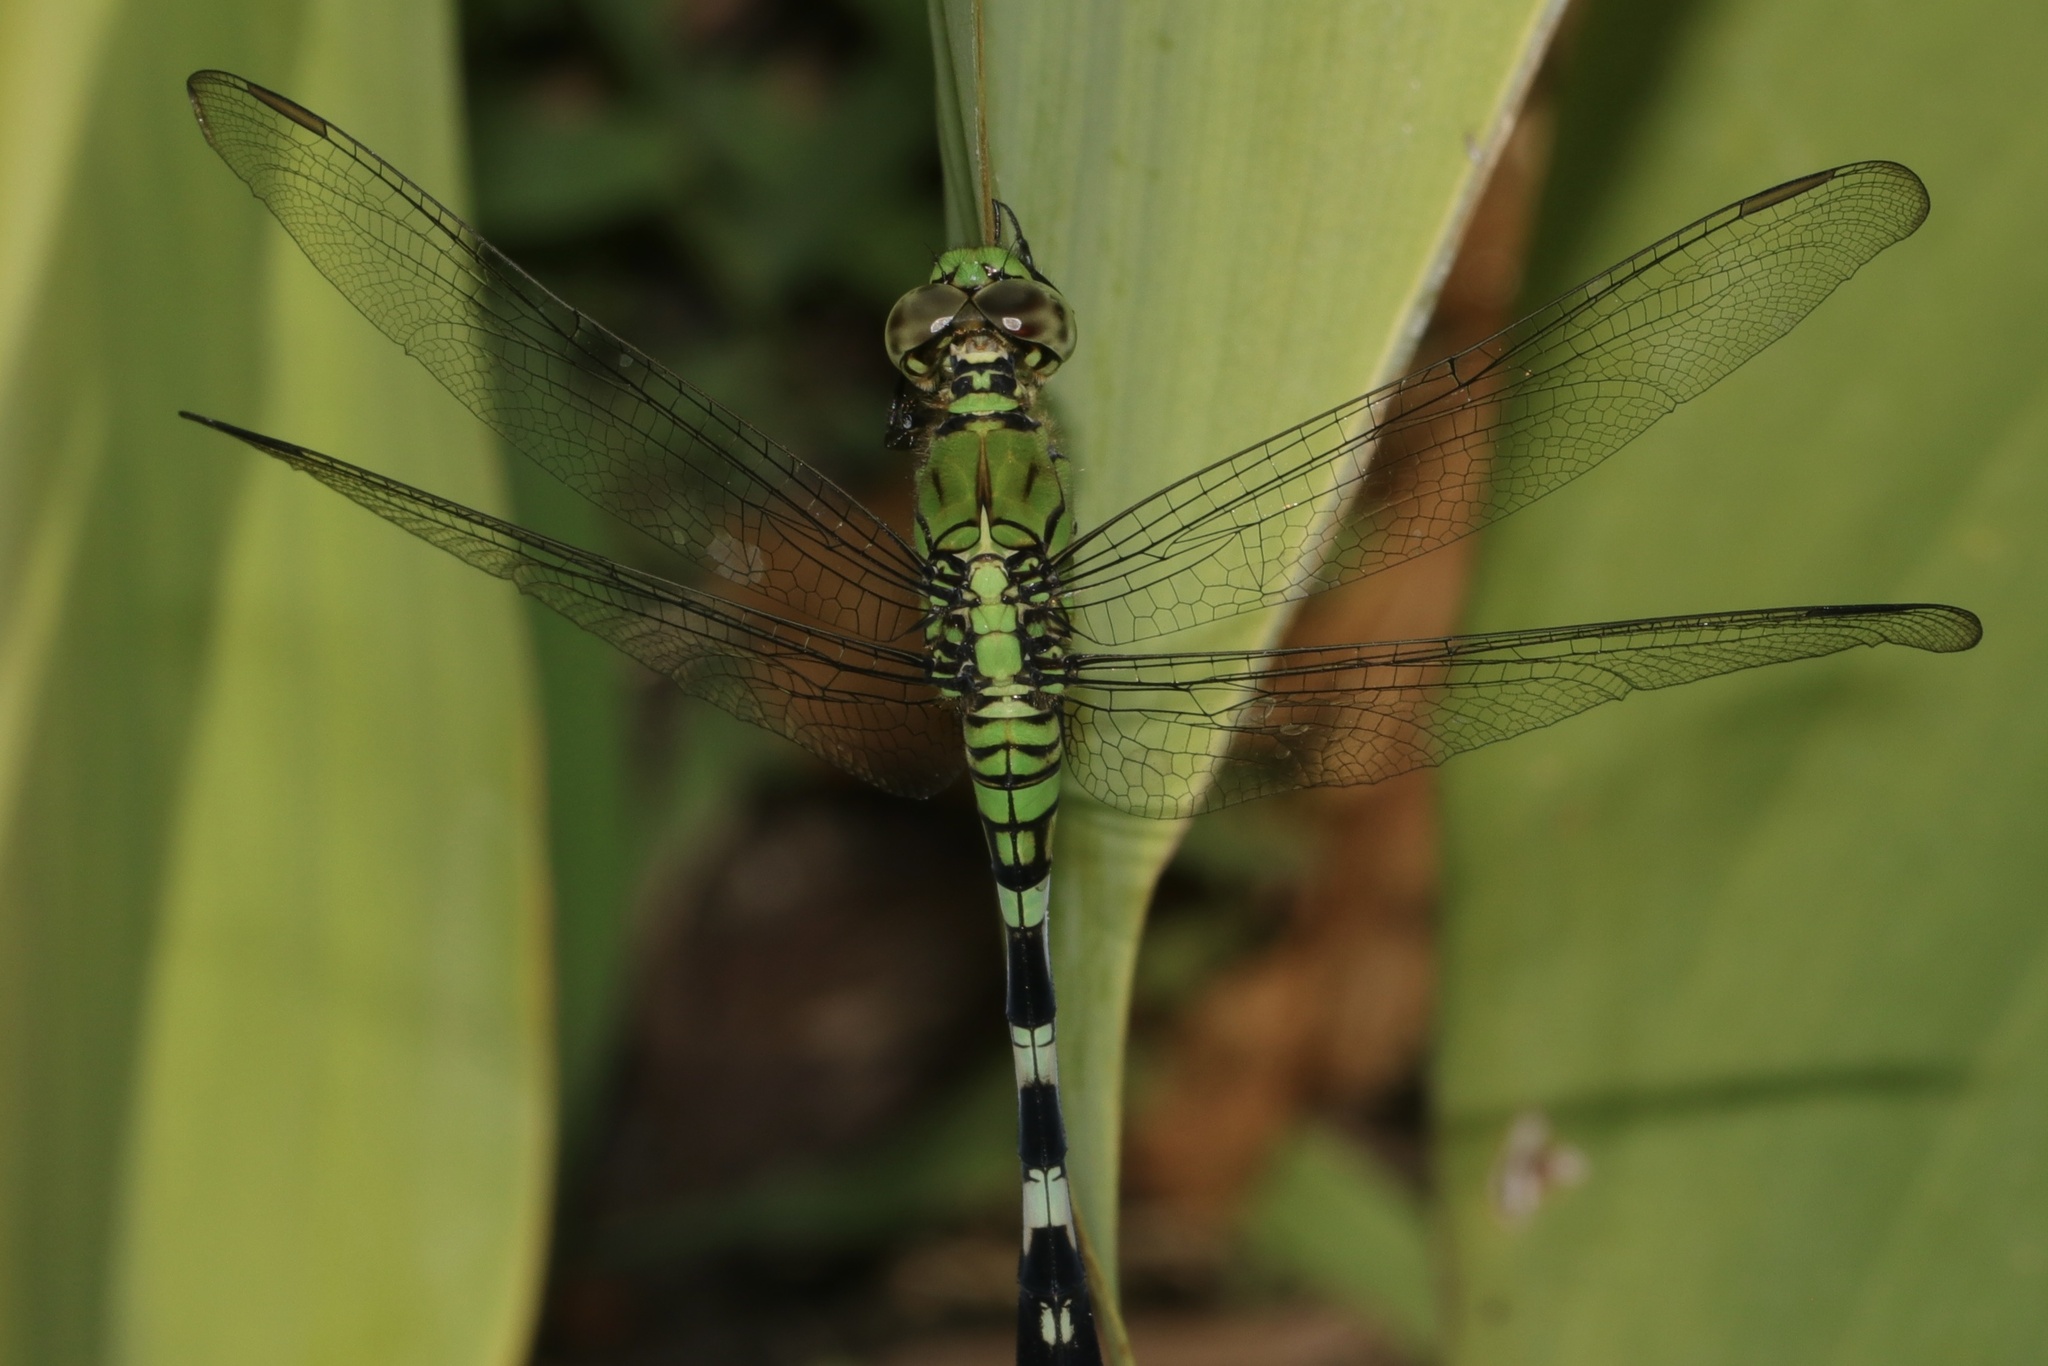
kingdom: Animalia
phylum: Arthropoda
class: Insecta
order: Odonata
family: Libellulidae
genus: Erythemis
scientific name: Erythemis simplicicollis
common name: Eastern pondhawk
